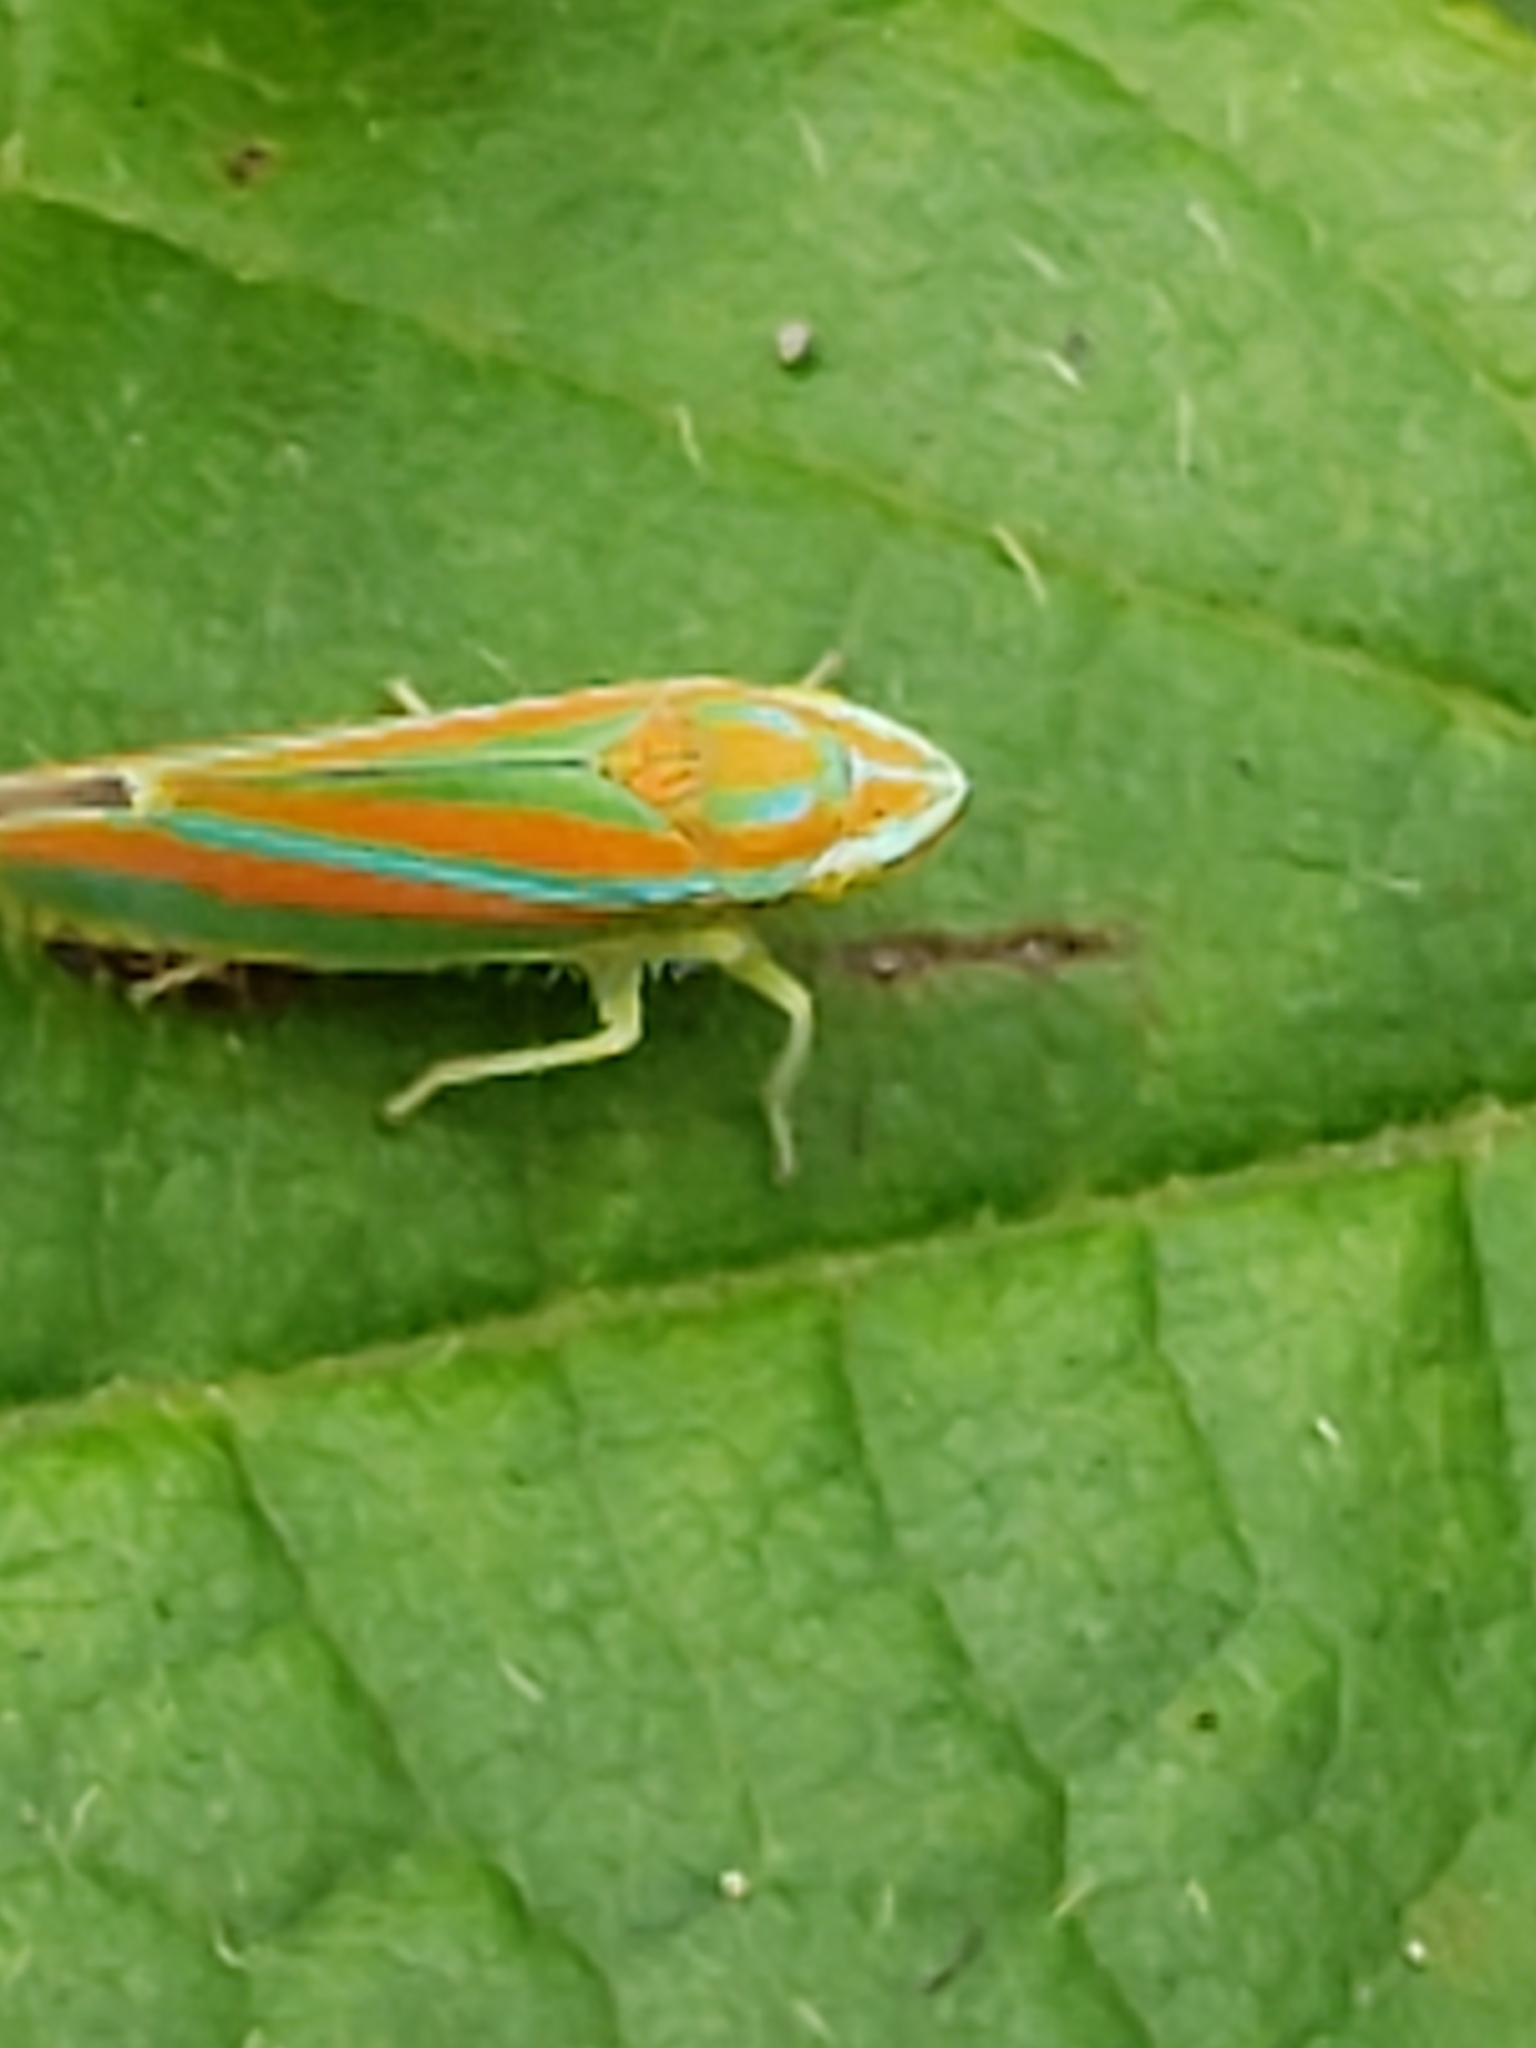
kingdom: Animalia
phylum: Arthropoda
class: Insecta
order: Hemiptera
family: Cicadellidae
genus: Graphocephala
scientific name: Graphocephala versuta
